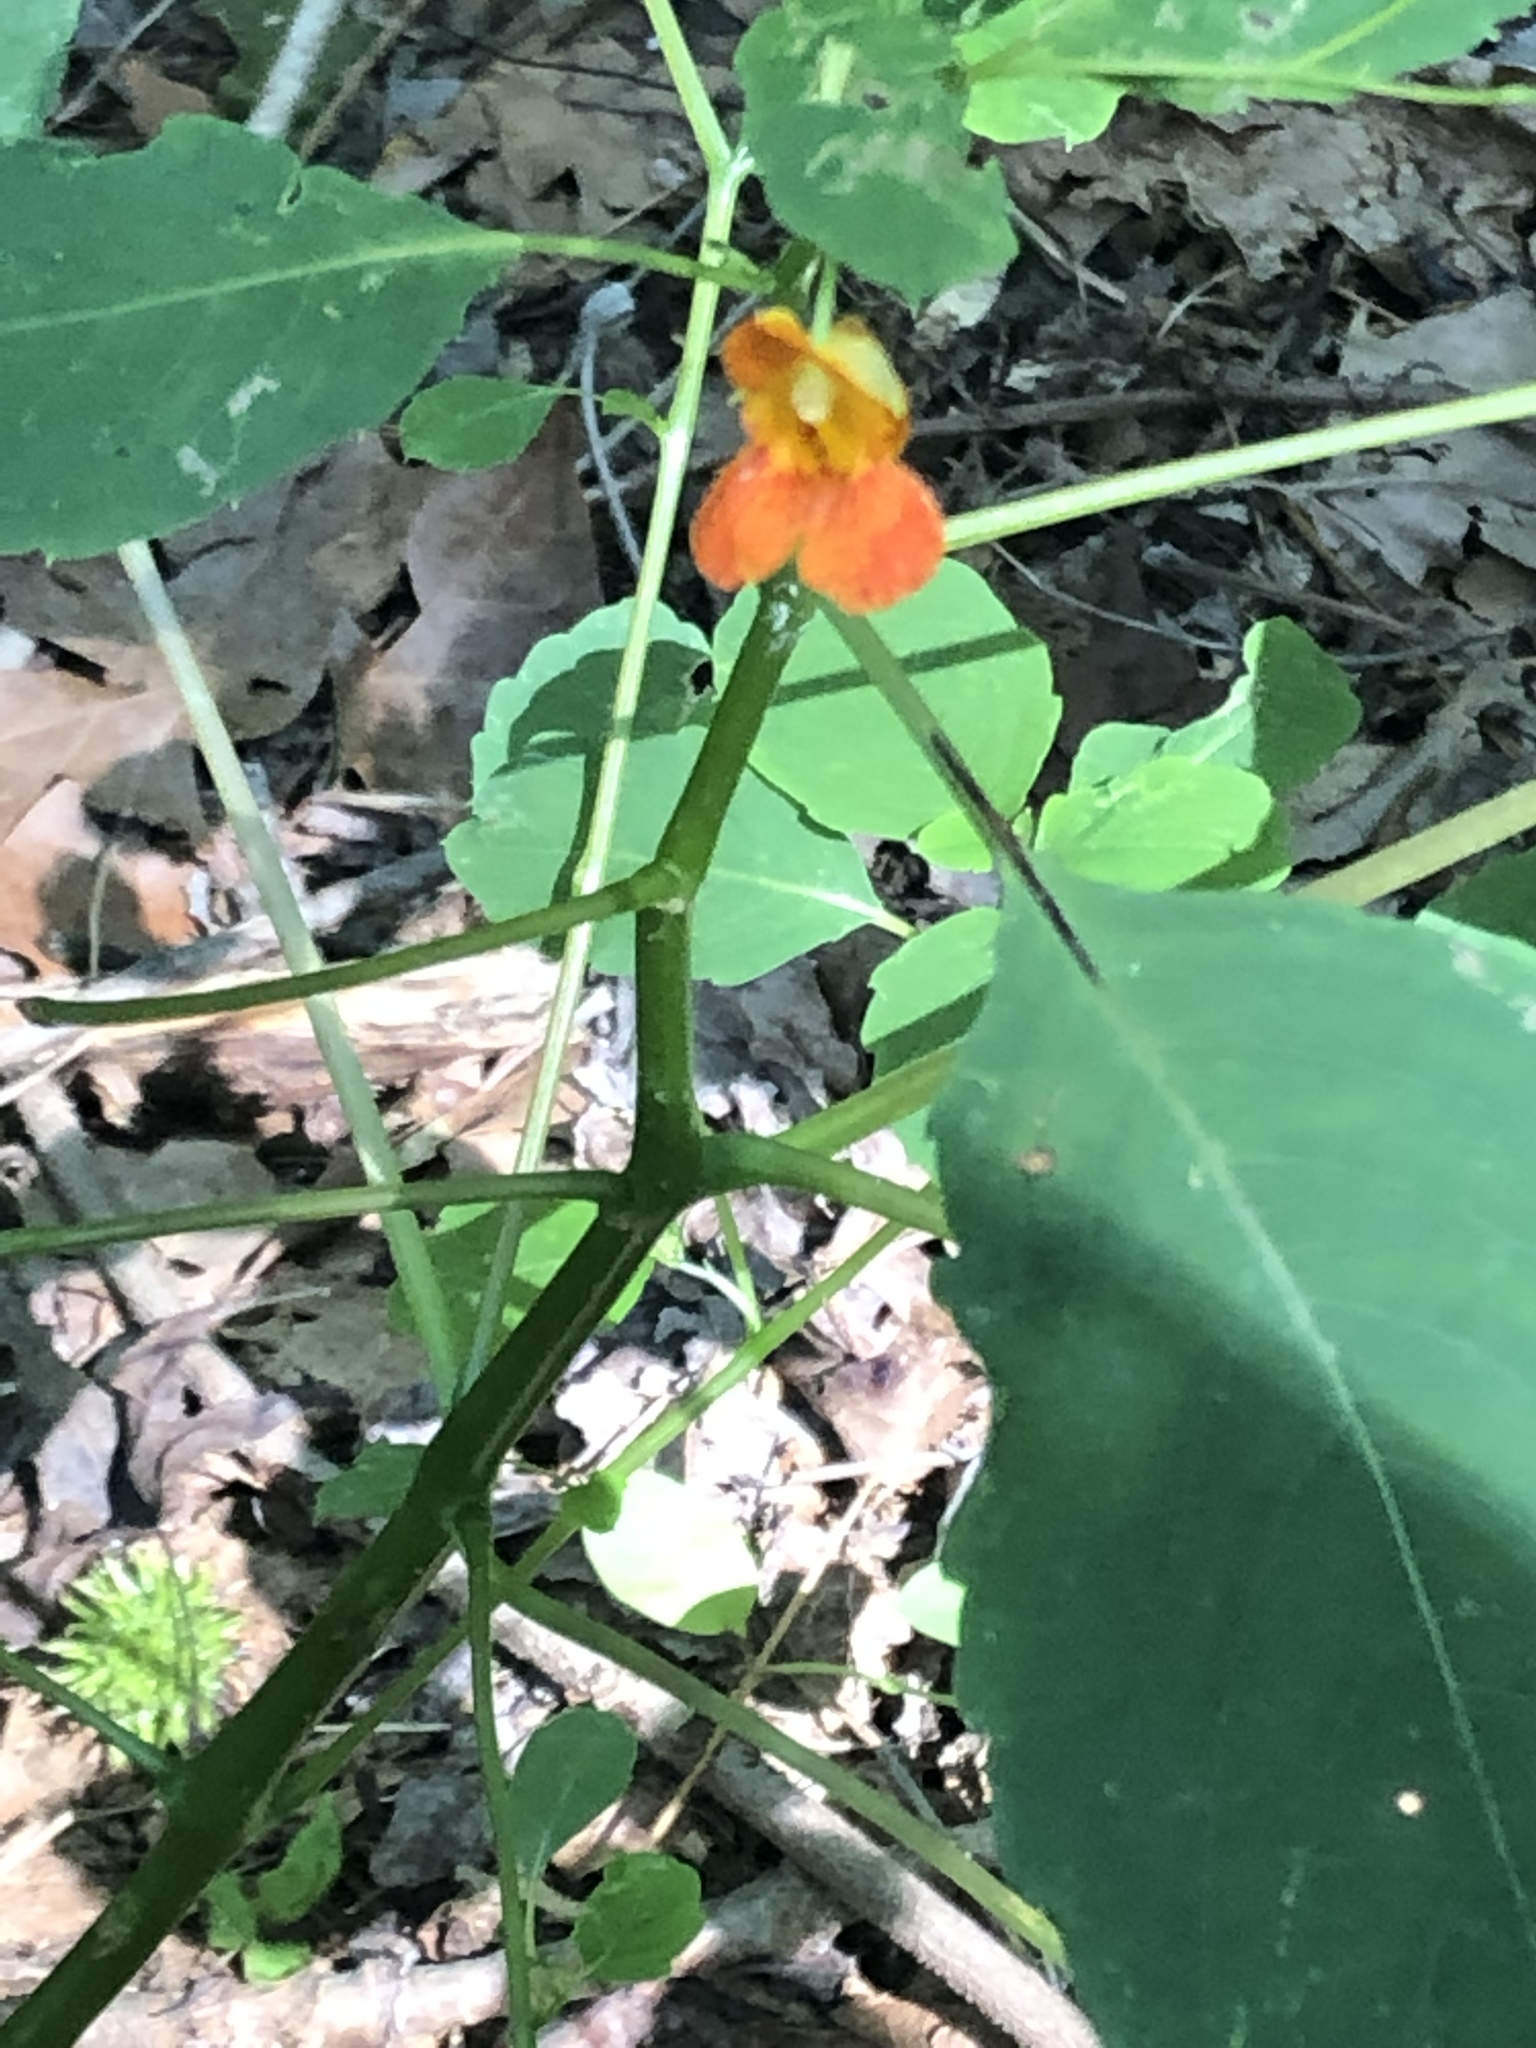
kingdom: Plantae
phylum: Tracheophyta
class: Magnoliopsida
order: Ericales
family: Balsaminaceae
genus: Impatiens
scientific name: Impatiens capensis
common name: Orange balsam
